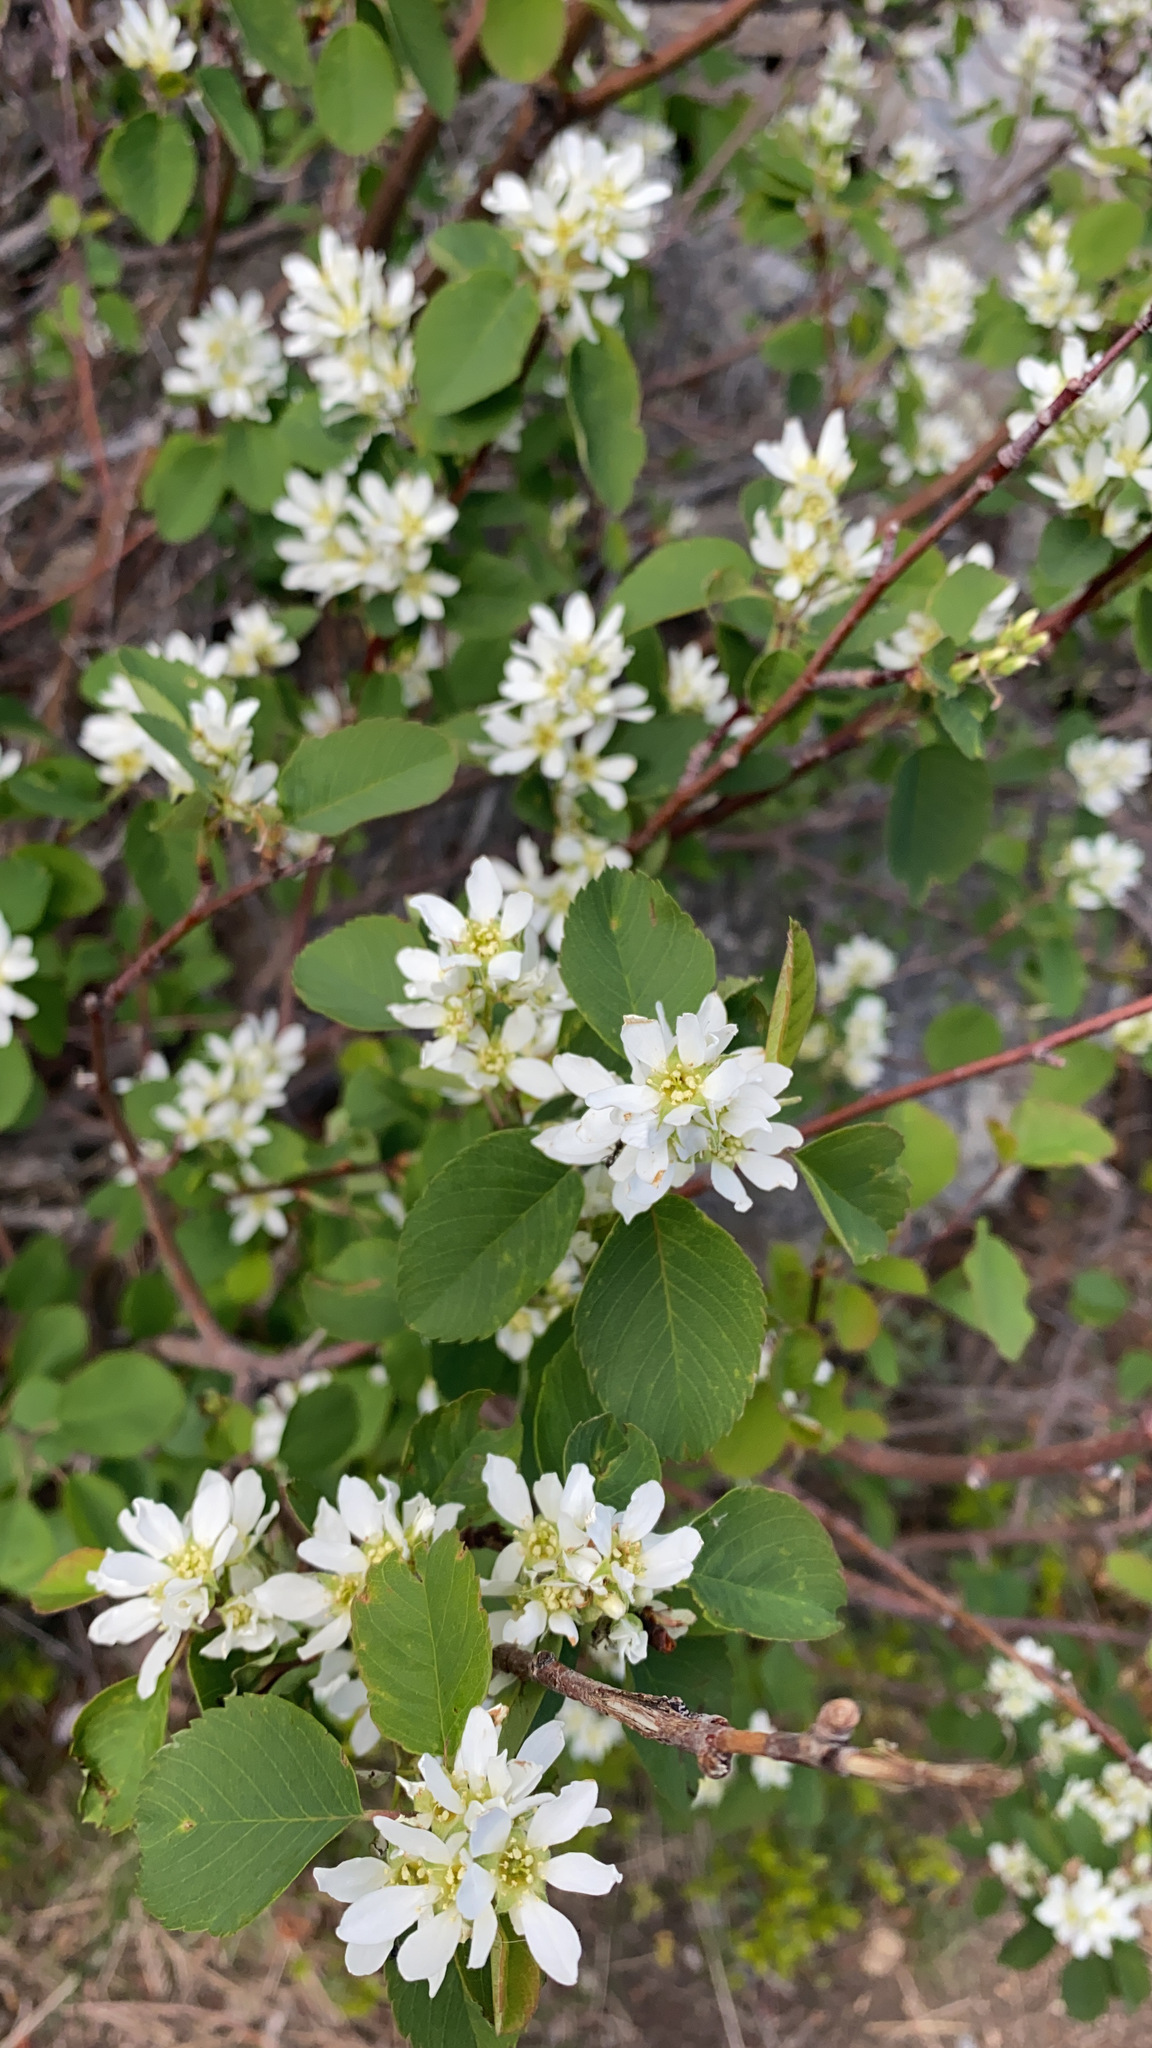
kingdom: Plantae
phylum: Tracheophyta
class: Magnoliopsida
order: Rosales
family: Rosaceae
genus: Amelanchier
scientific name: Amelanchier alnifolia
